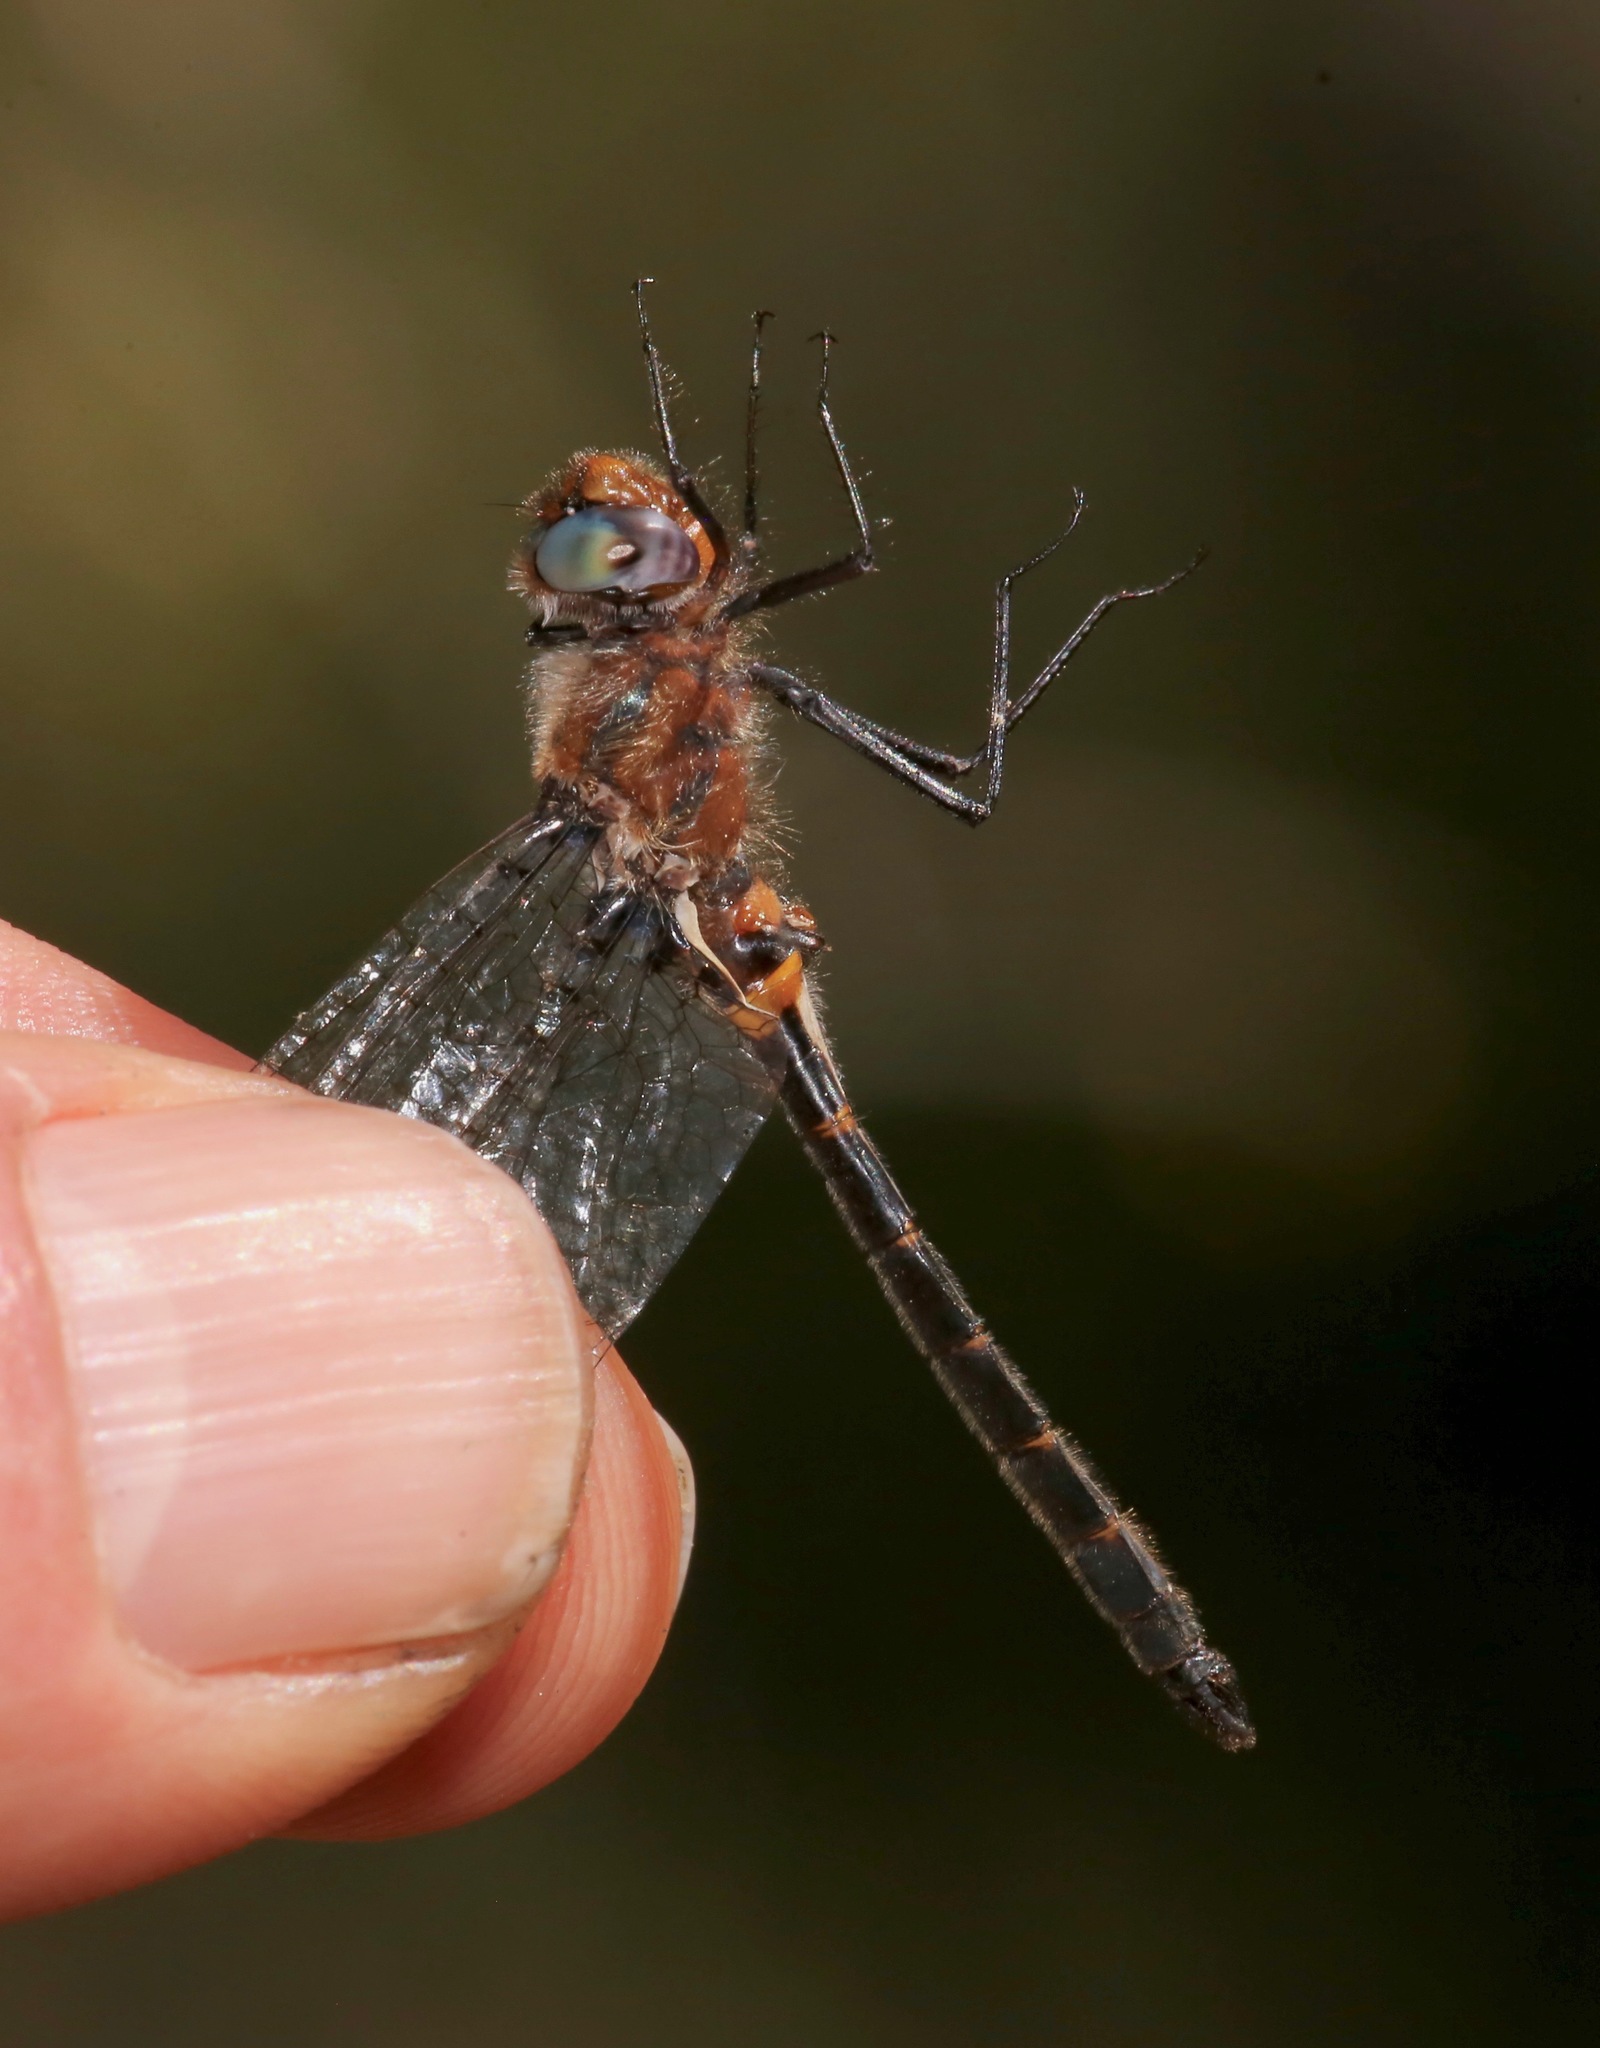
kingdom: Animalia
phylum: Arthropoda
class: Insecta
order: Odonata
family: Corduliidae
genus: Helocordulia
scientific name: Helocordulia selysii
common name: Selys's sundragon
